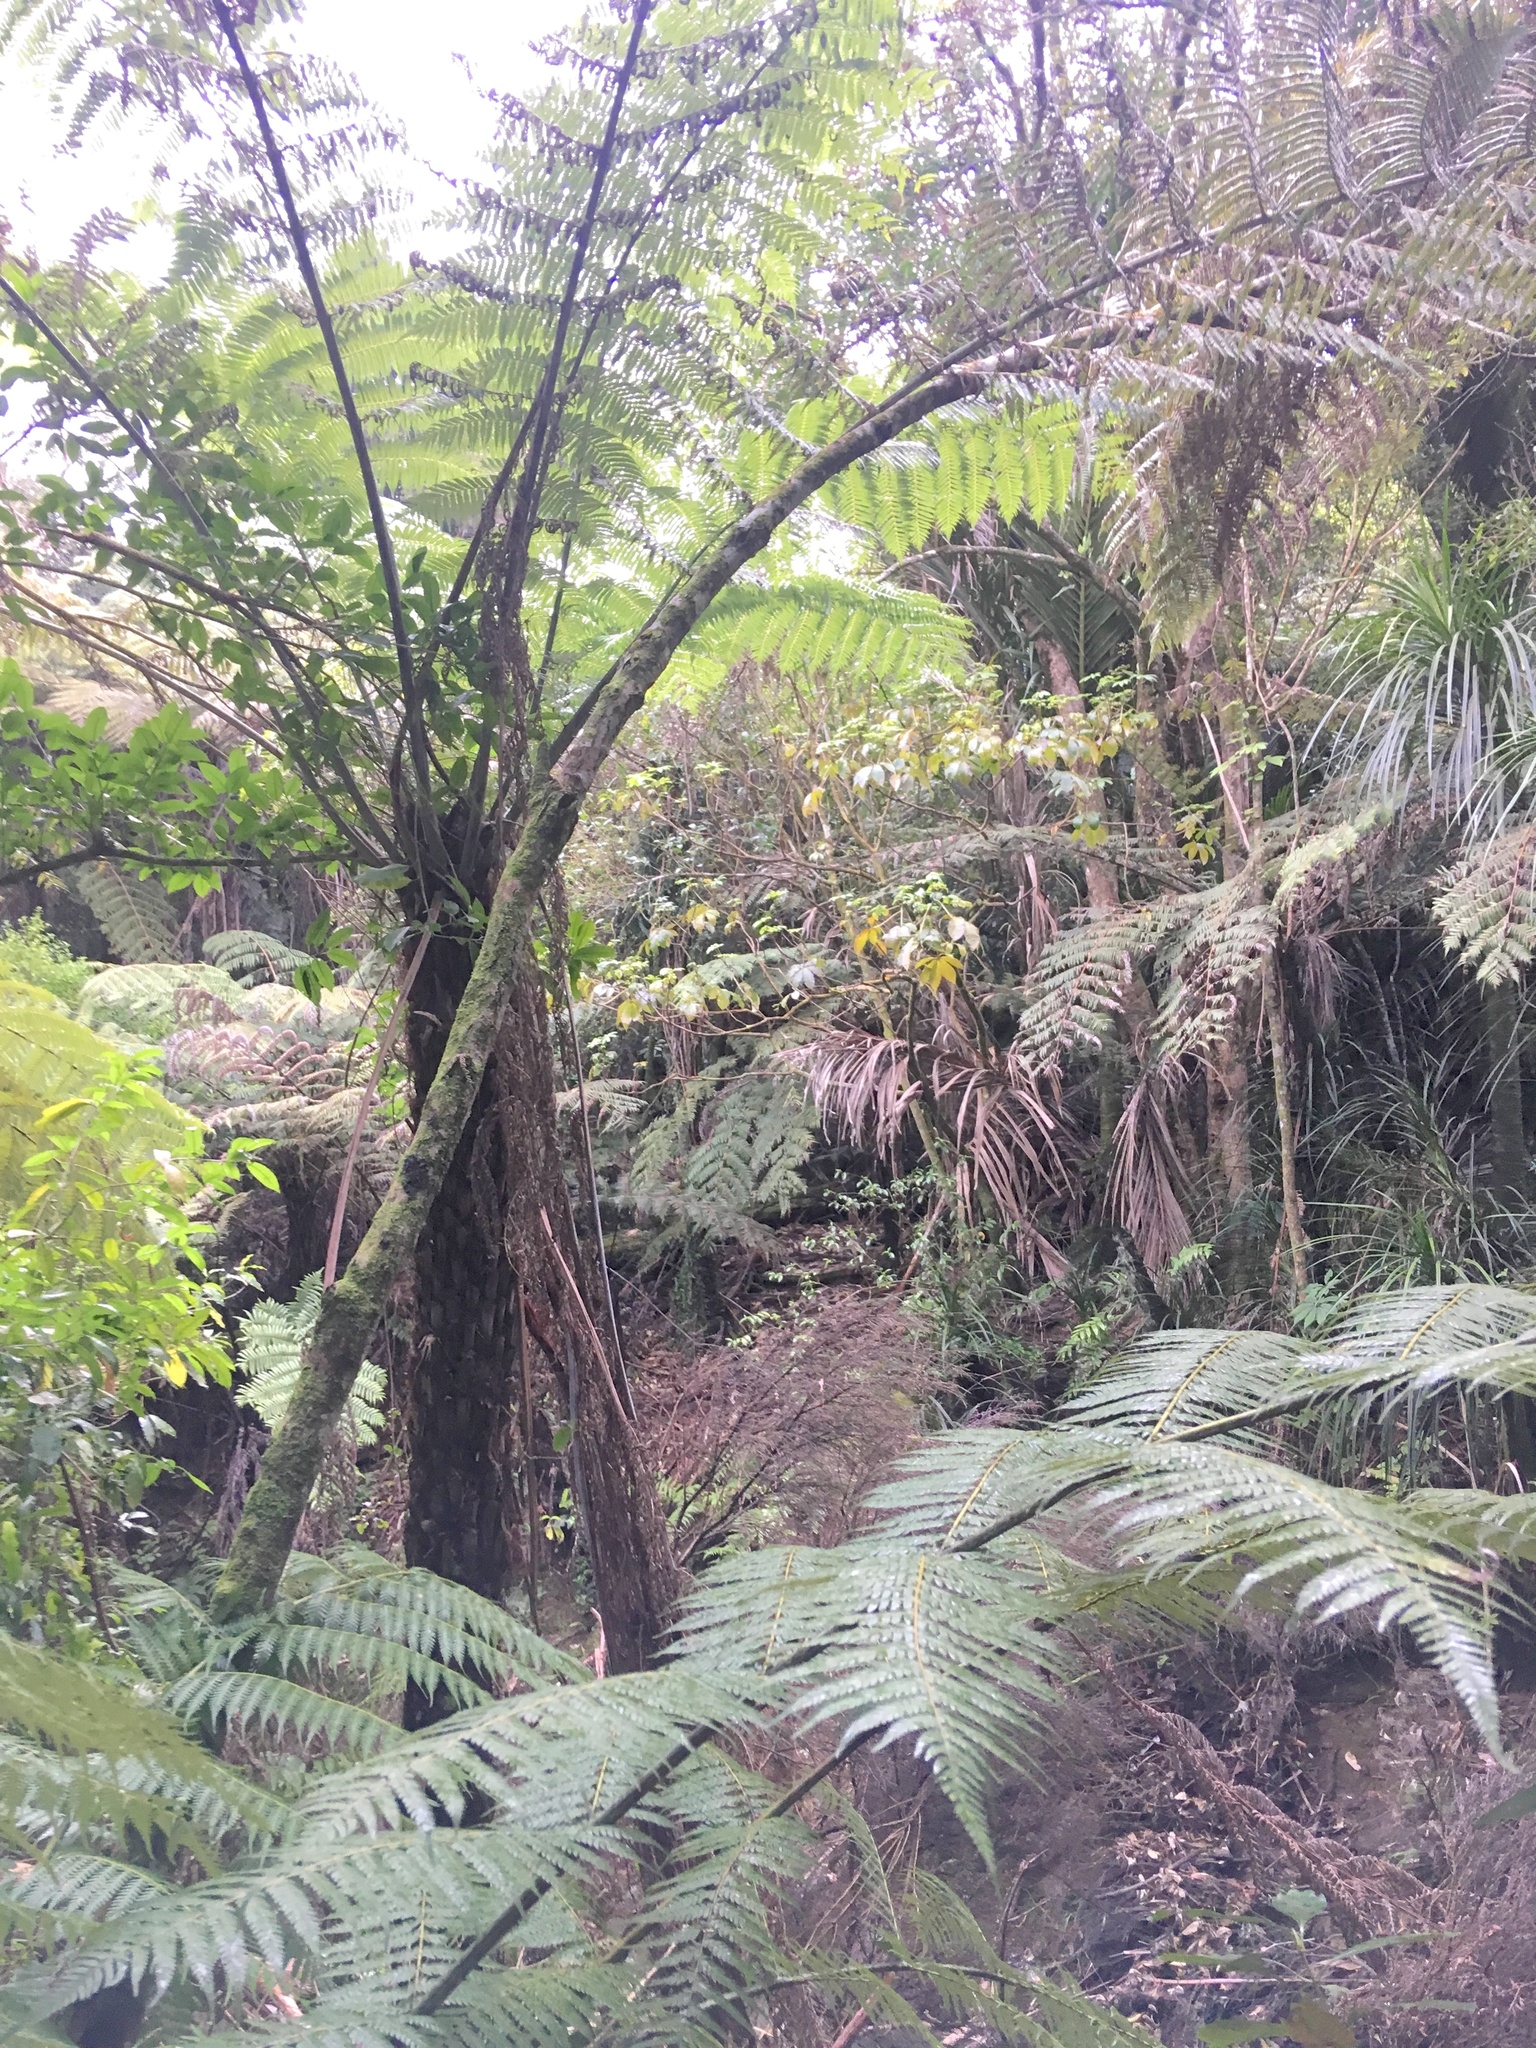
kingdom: Plantae
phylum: Tracheophyta
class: Polypodiopsida
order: Cyatheales
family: Cyatheaceae
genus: Alsophila
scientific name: Alsophila dealbata
